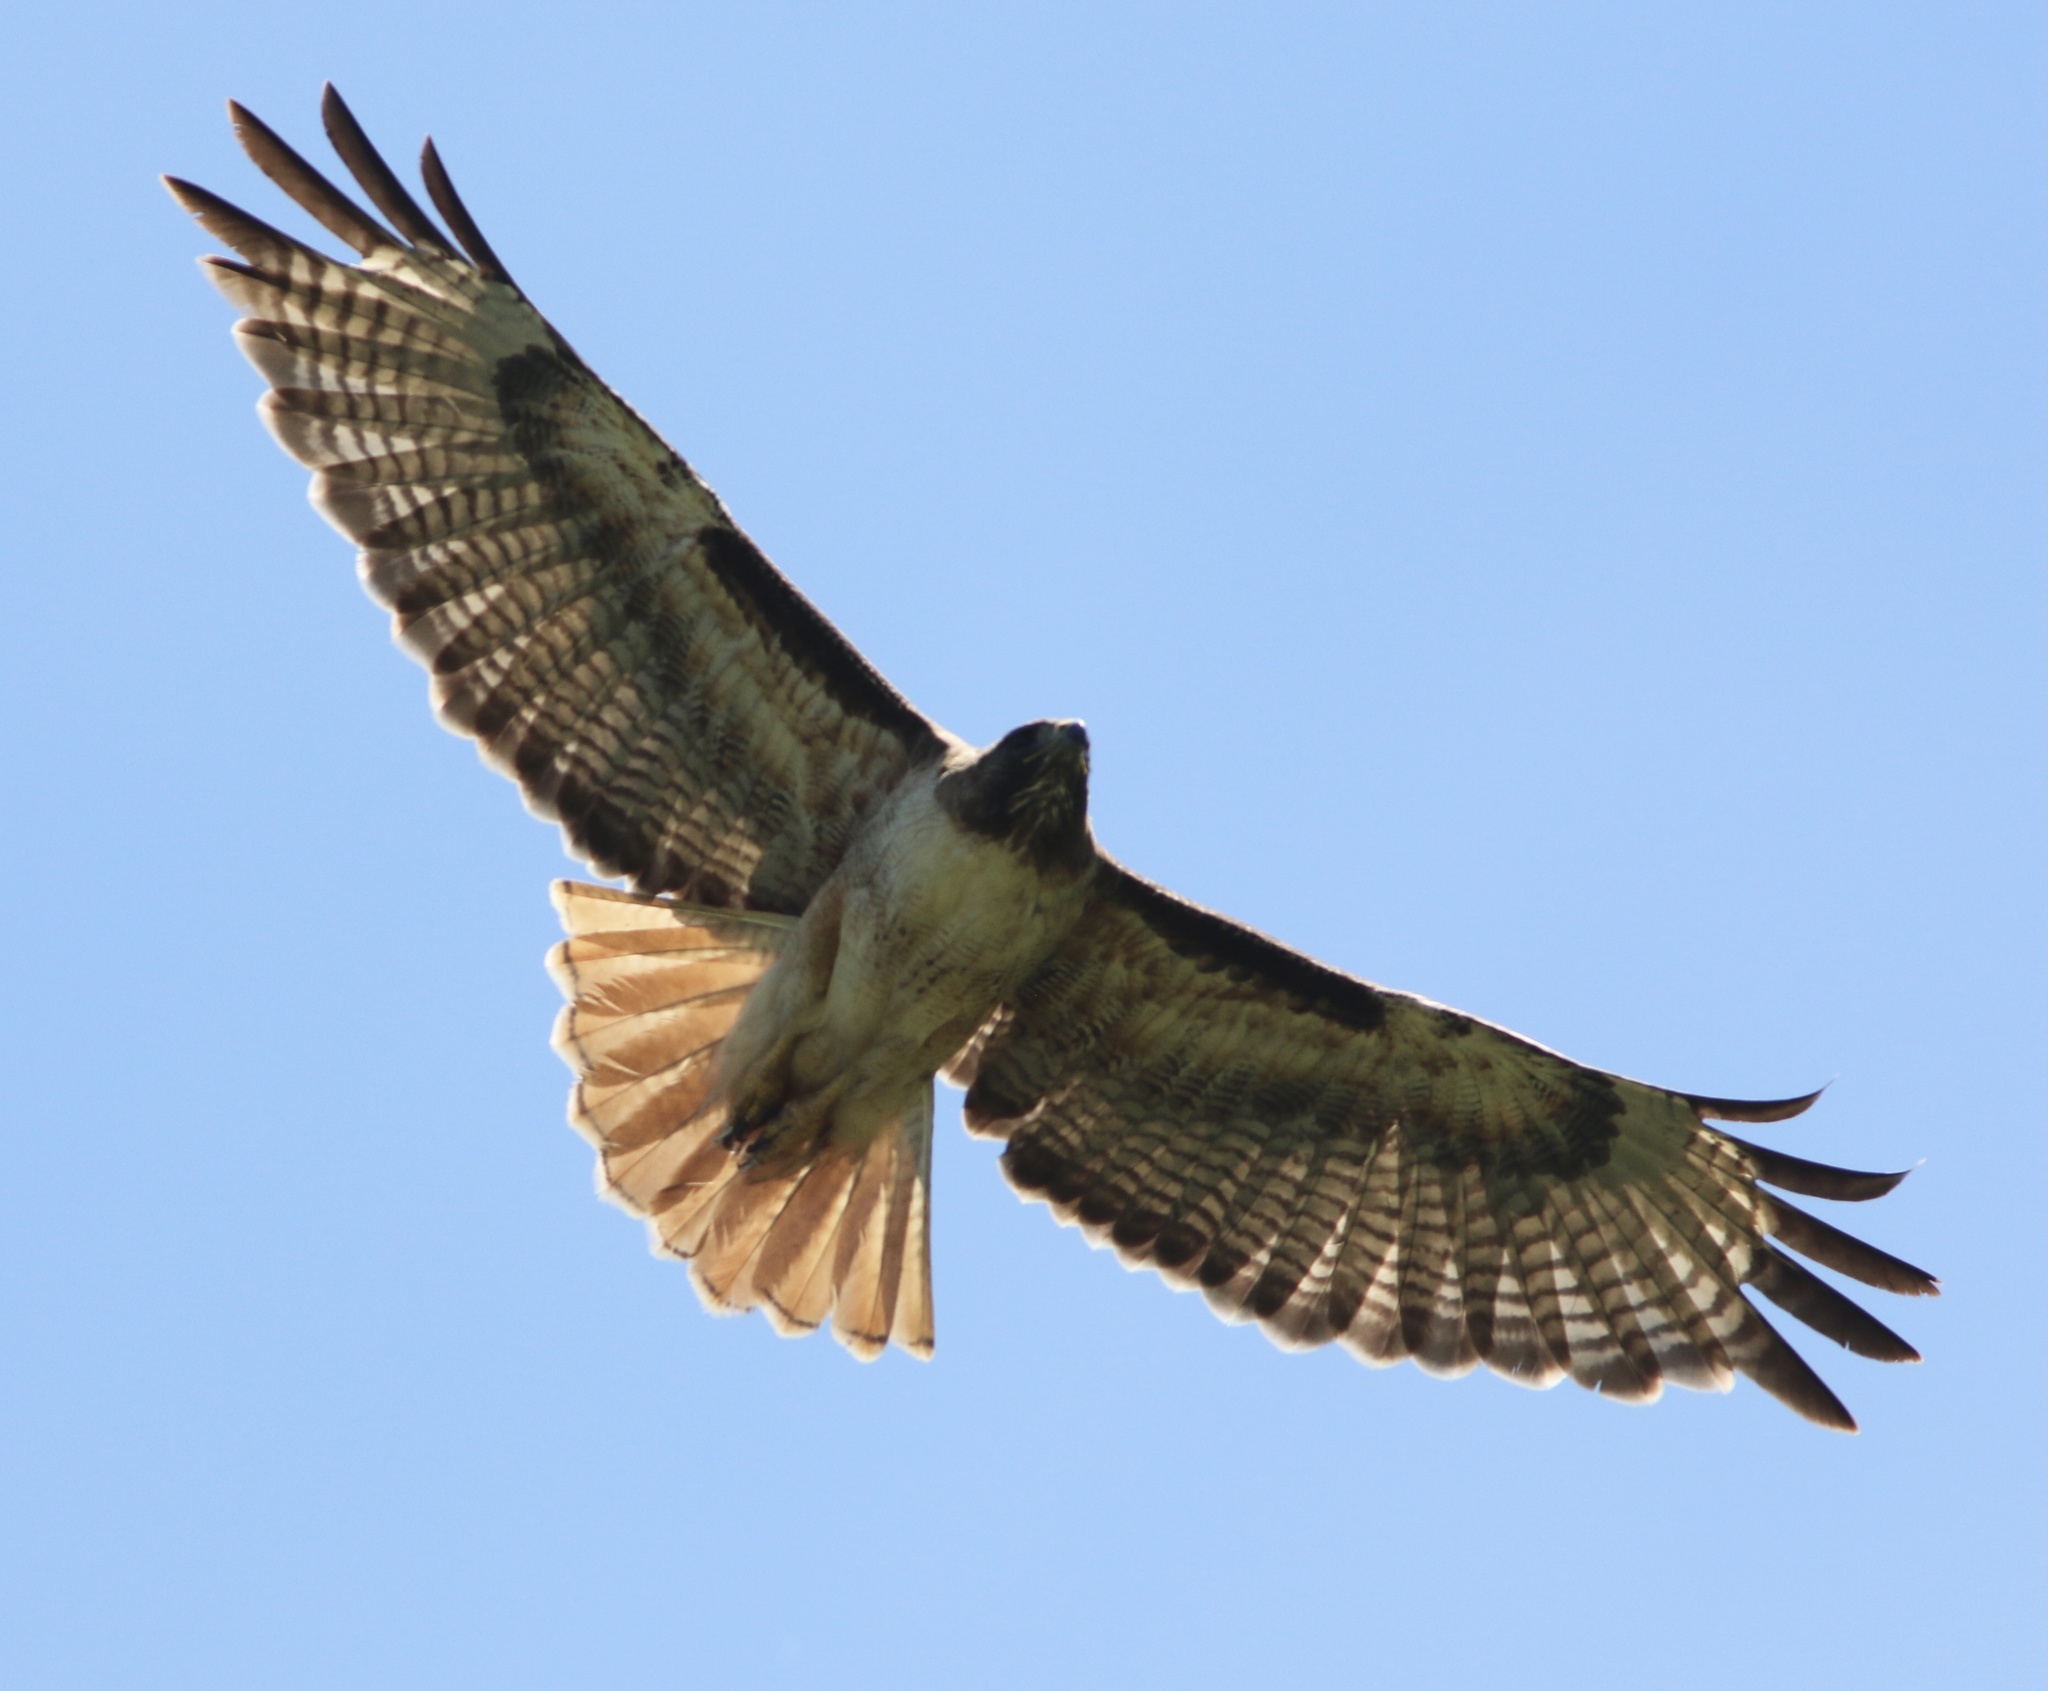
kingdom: Animalia
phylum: Chordata
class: Aves
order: Accipitriformes
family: Accipitridae
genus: Buteo
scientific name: Buteo jamaicensis
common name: Red-tailed hawk
